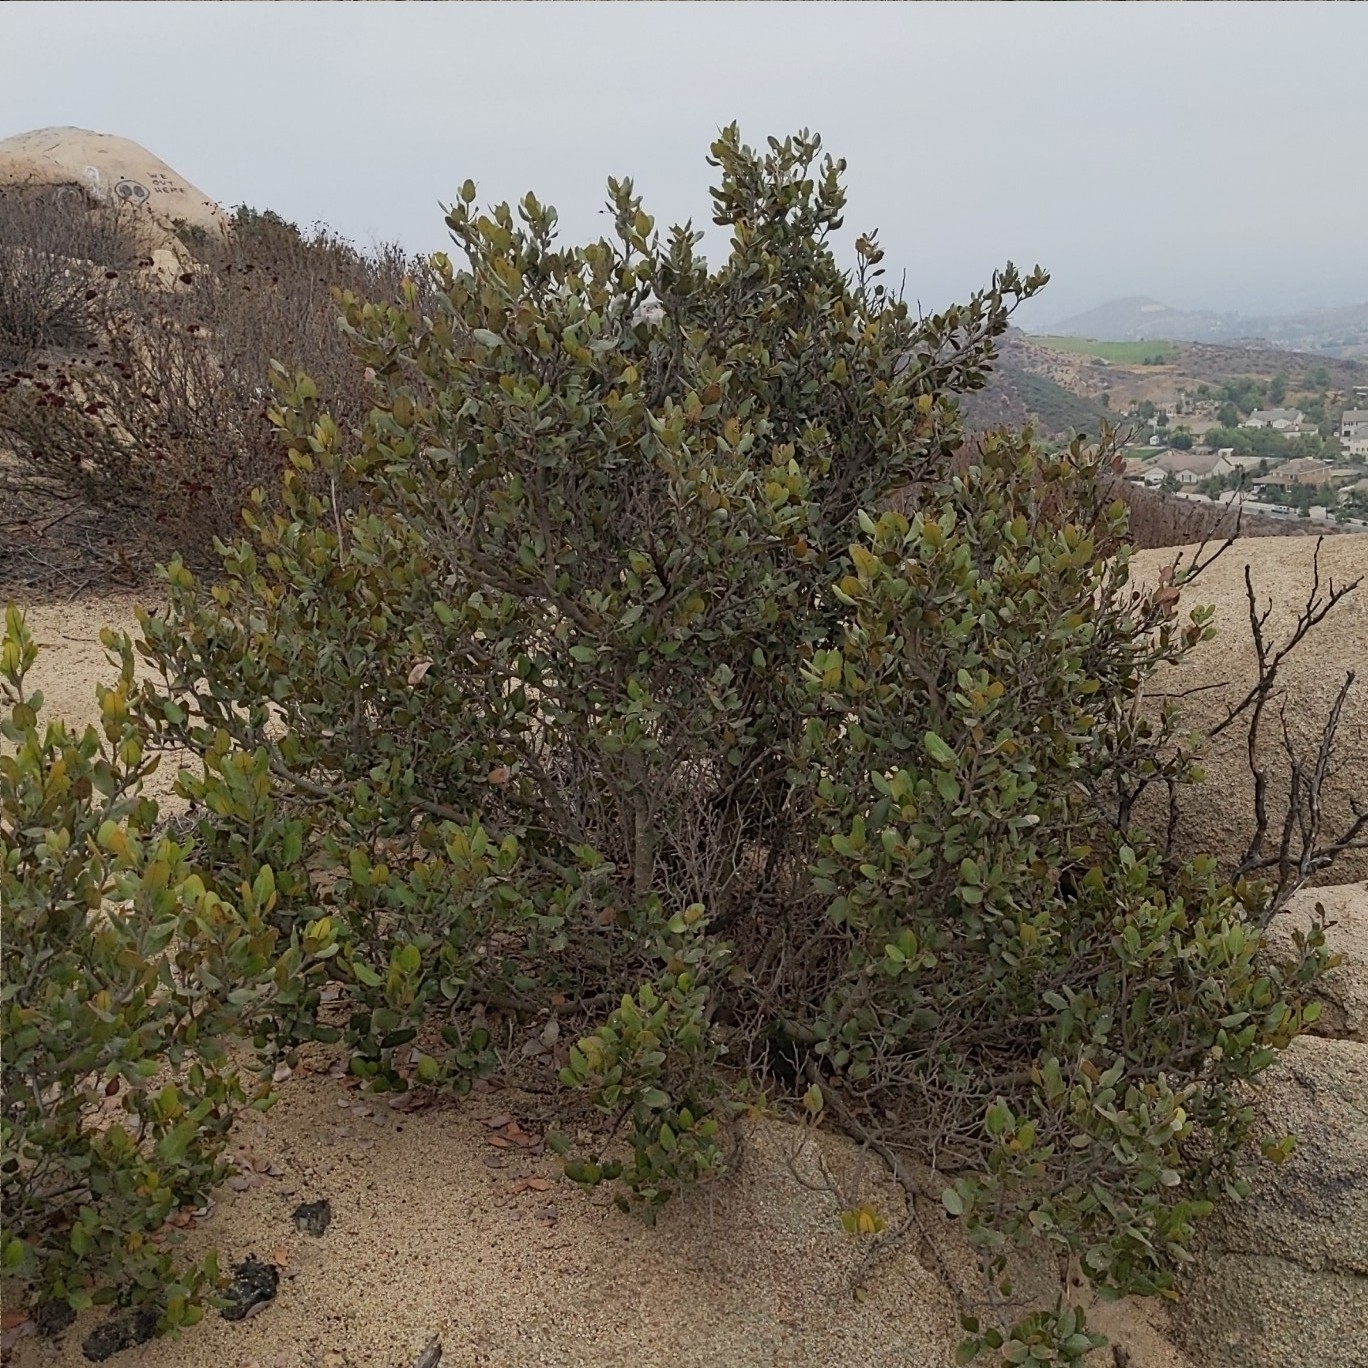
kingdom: Plantae
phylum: Tracheophyta
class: Magnoliopsida
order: Sapindales
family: Anacardiaceae
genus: Rhus
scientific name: Rhus integrifolia
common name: Lemonade sumac
